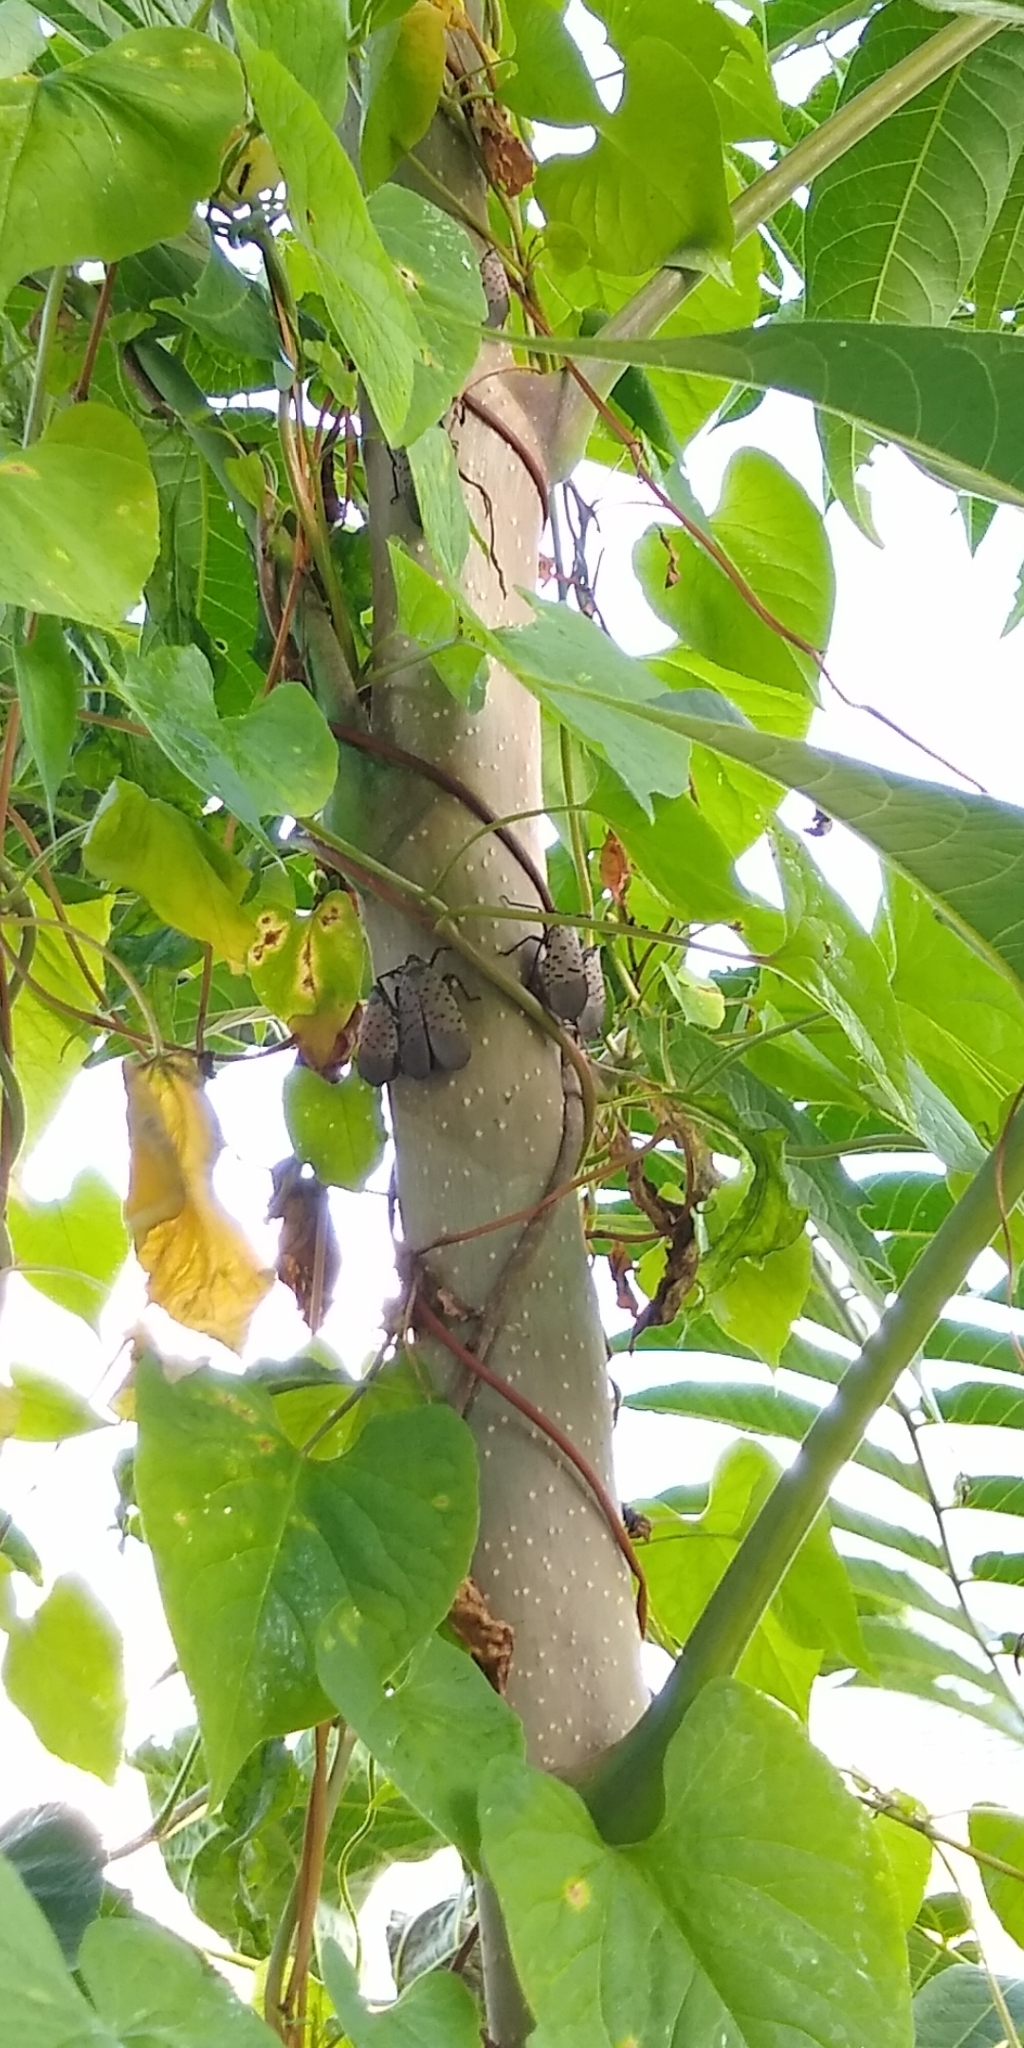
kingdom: Animalia
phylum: Arthropoda
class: Insecta
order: Hemiptera
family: Fulgoridae
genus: Lycorma
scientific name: Lycorma delicatula
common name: Spotted lanternfly
